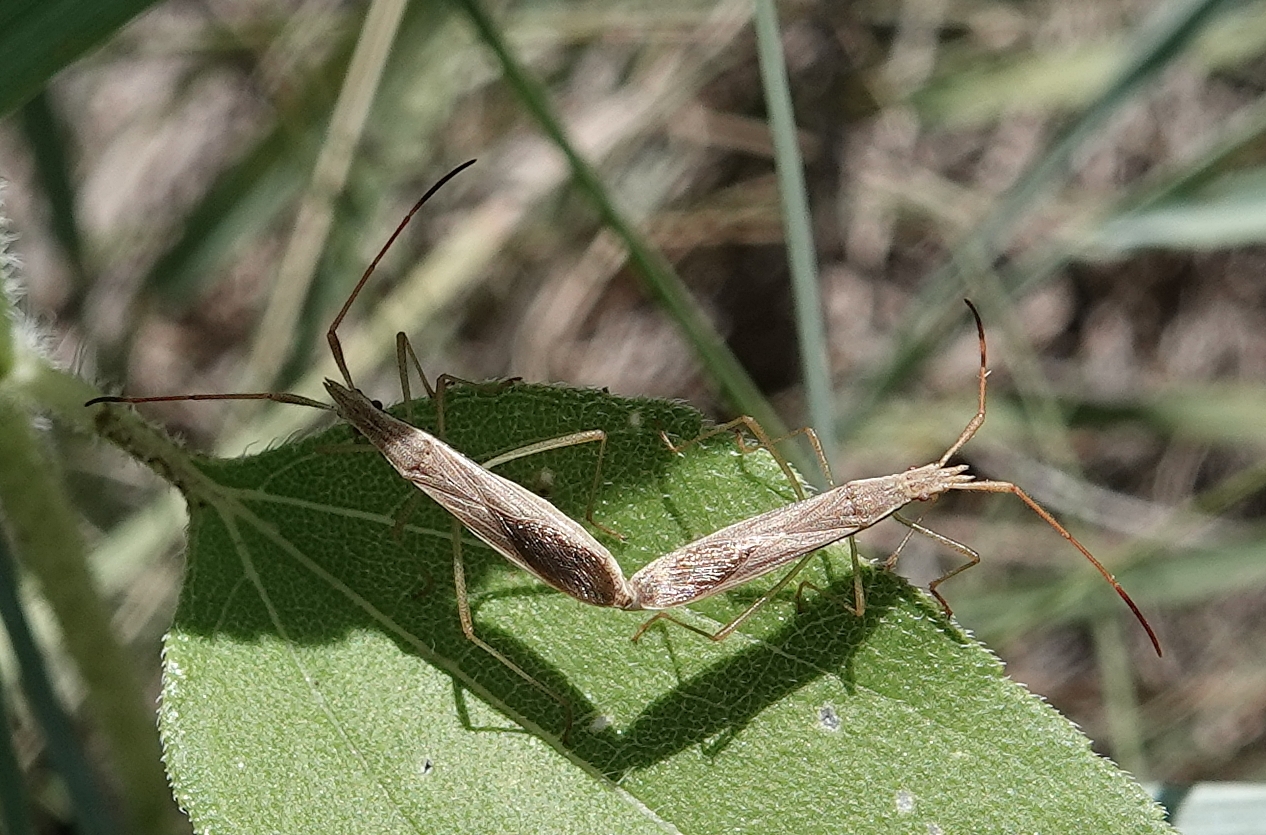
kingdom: Animalia
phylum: Arthropoda
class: Insecta
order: Hemiptera
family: Alydidae
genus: Protenor
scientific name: Protenor belfragei
